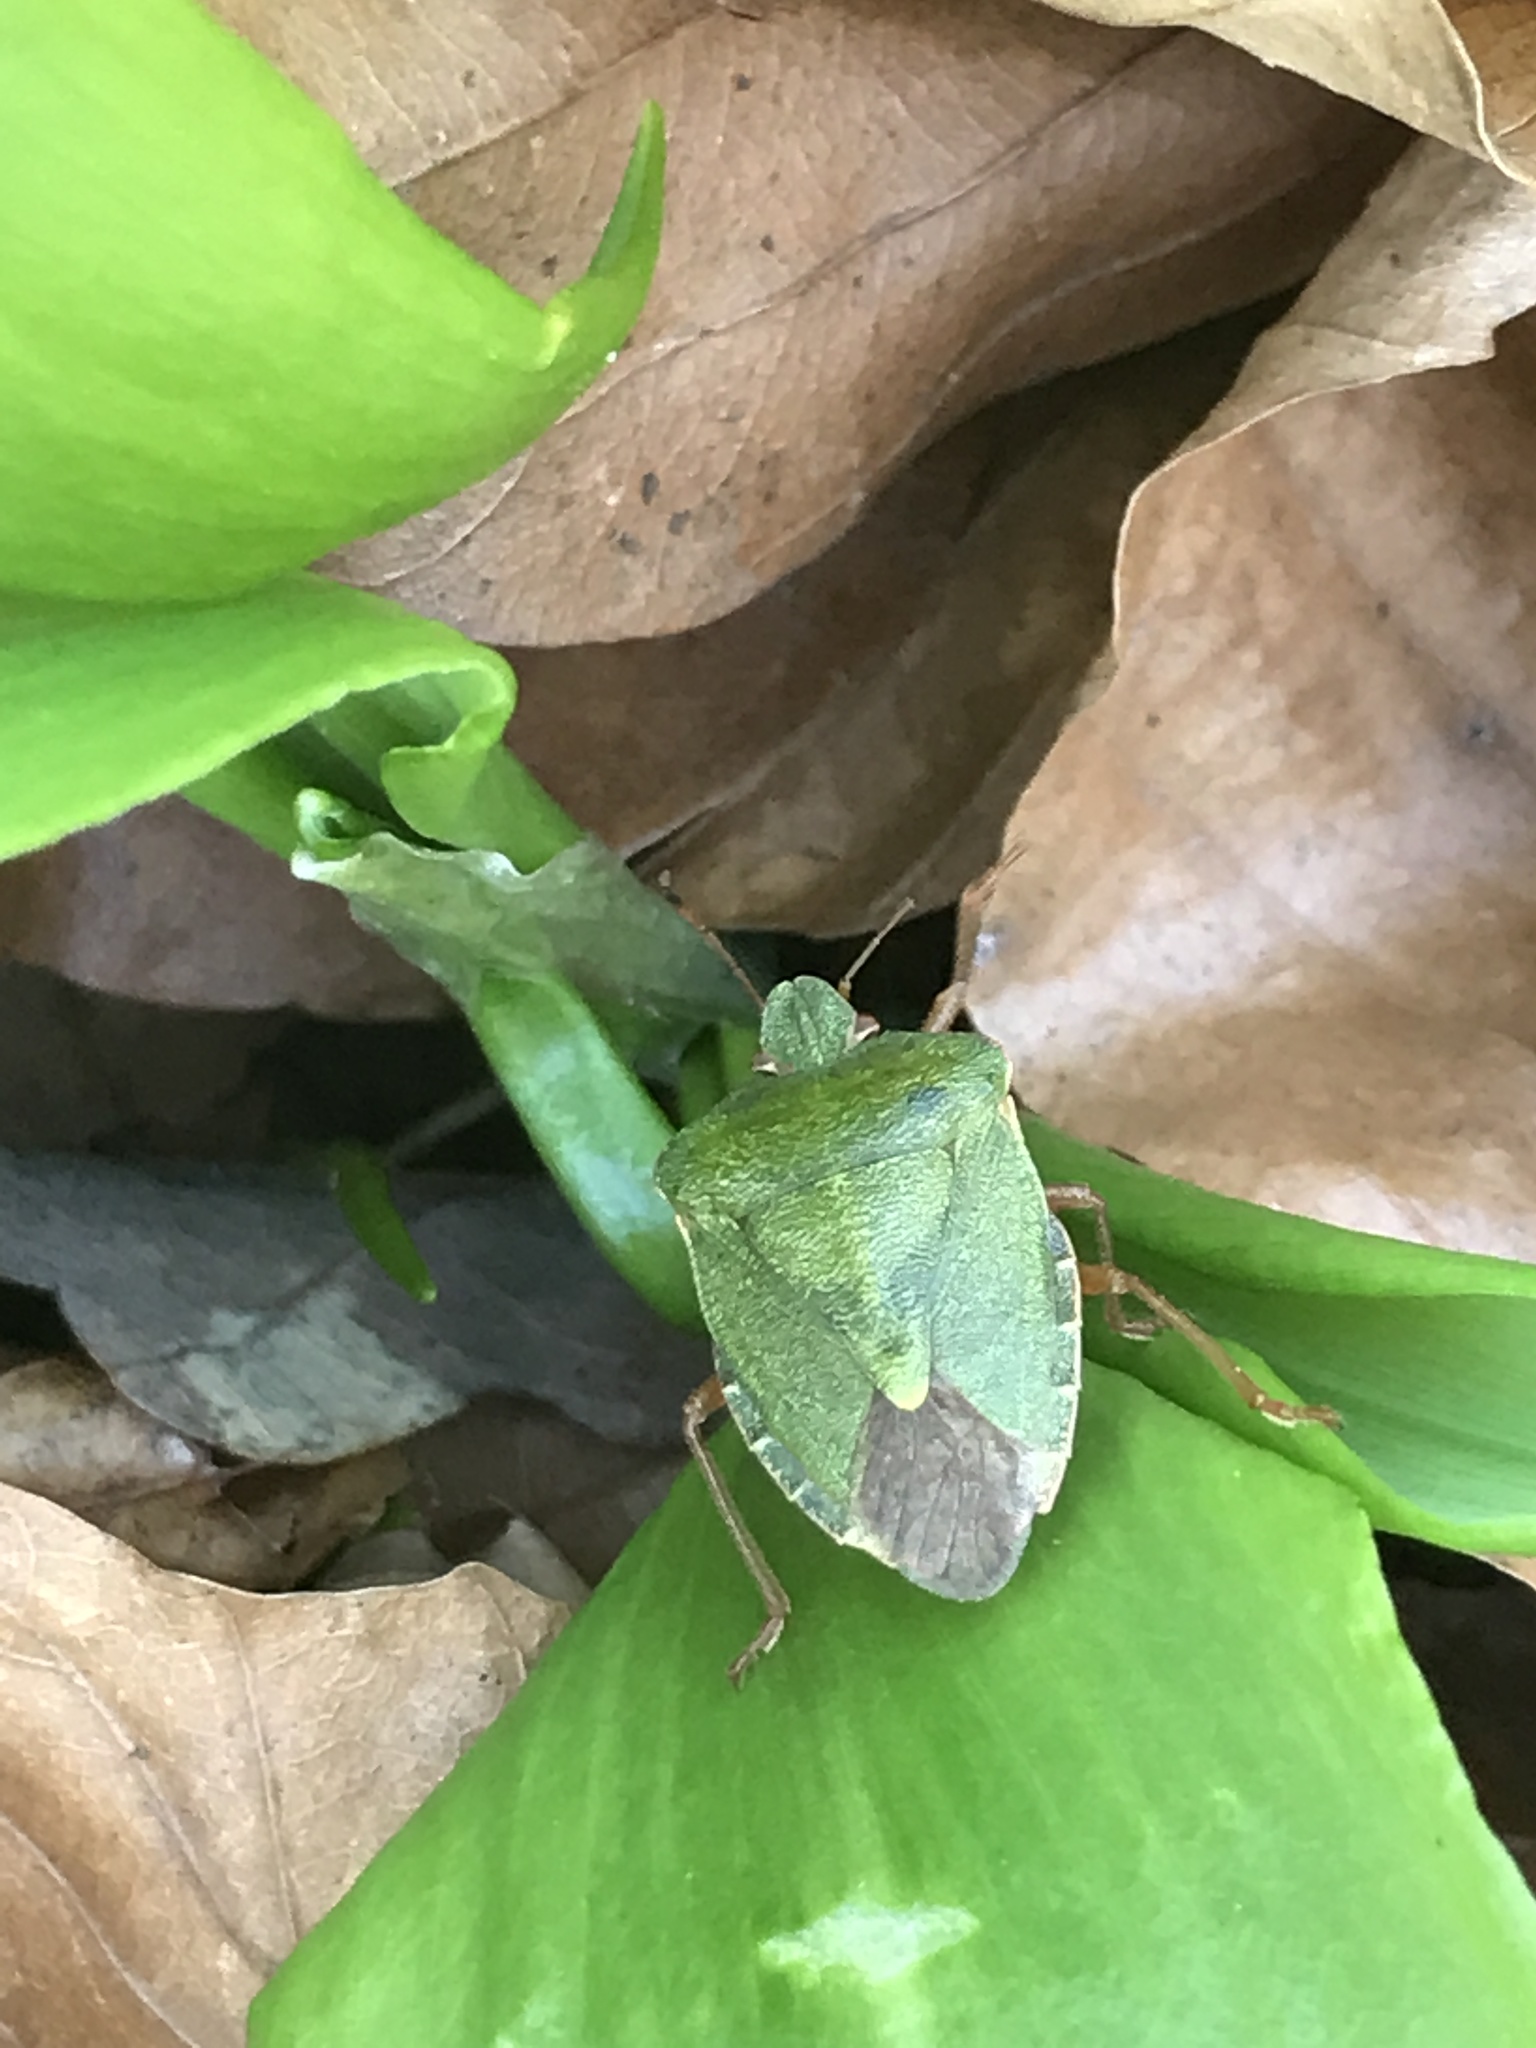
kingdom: Animalia
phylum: Arthropoda
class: Insecta
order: Hemiptera
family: Pentatomidae
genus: Palomena
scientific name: Palomena prasina
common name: Green shieldbug
